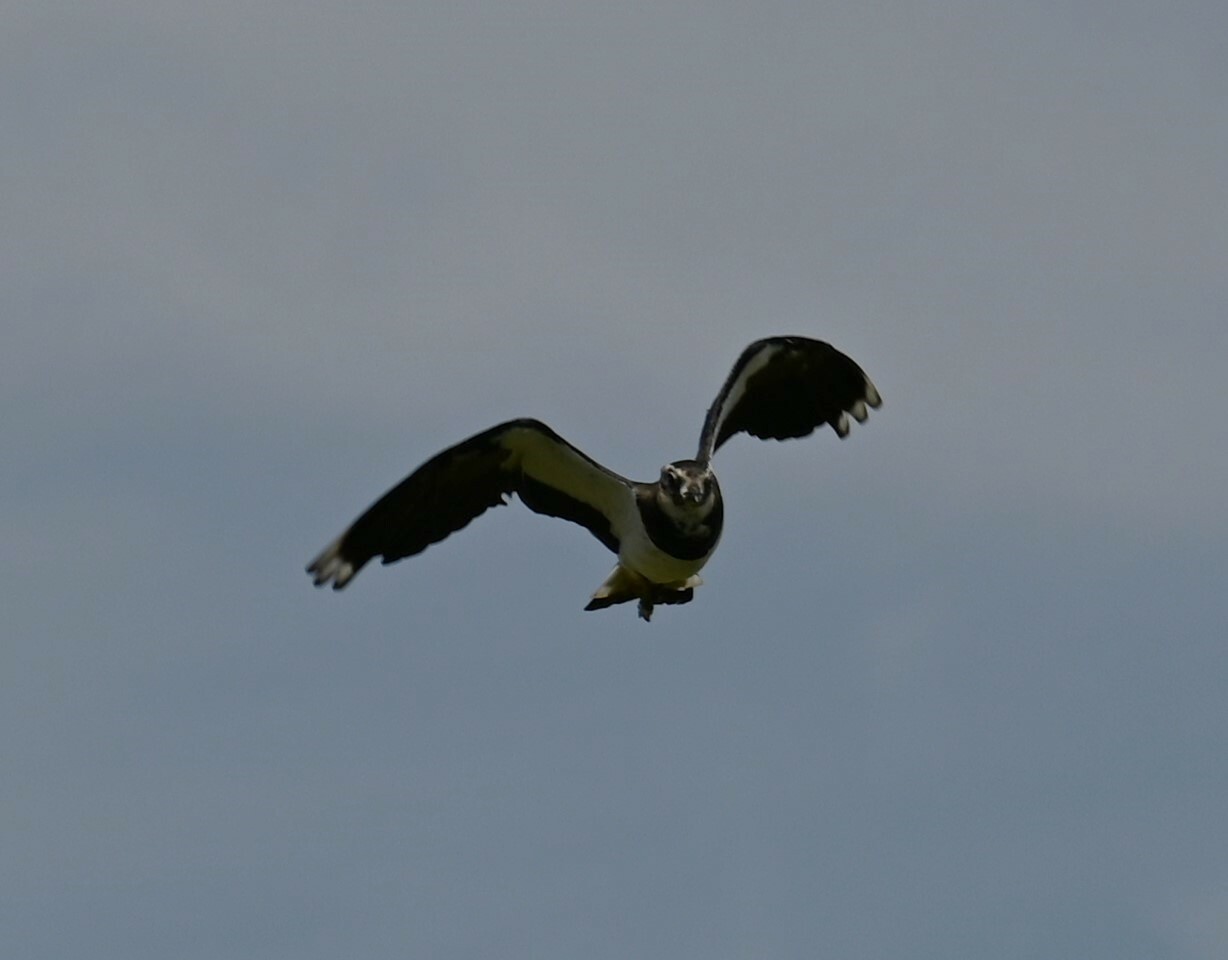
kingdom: Animalia
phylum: Chordata
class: Aves
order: Charadriiformes
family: Charadriidae
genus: Vanellus
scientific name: Vanellus vanellus
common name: Northern lapwing
